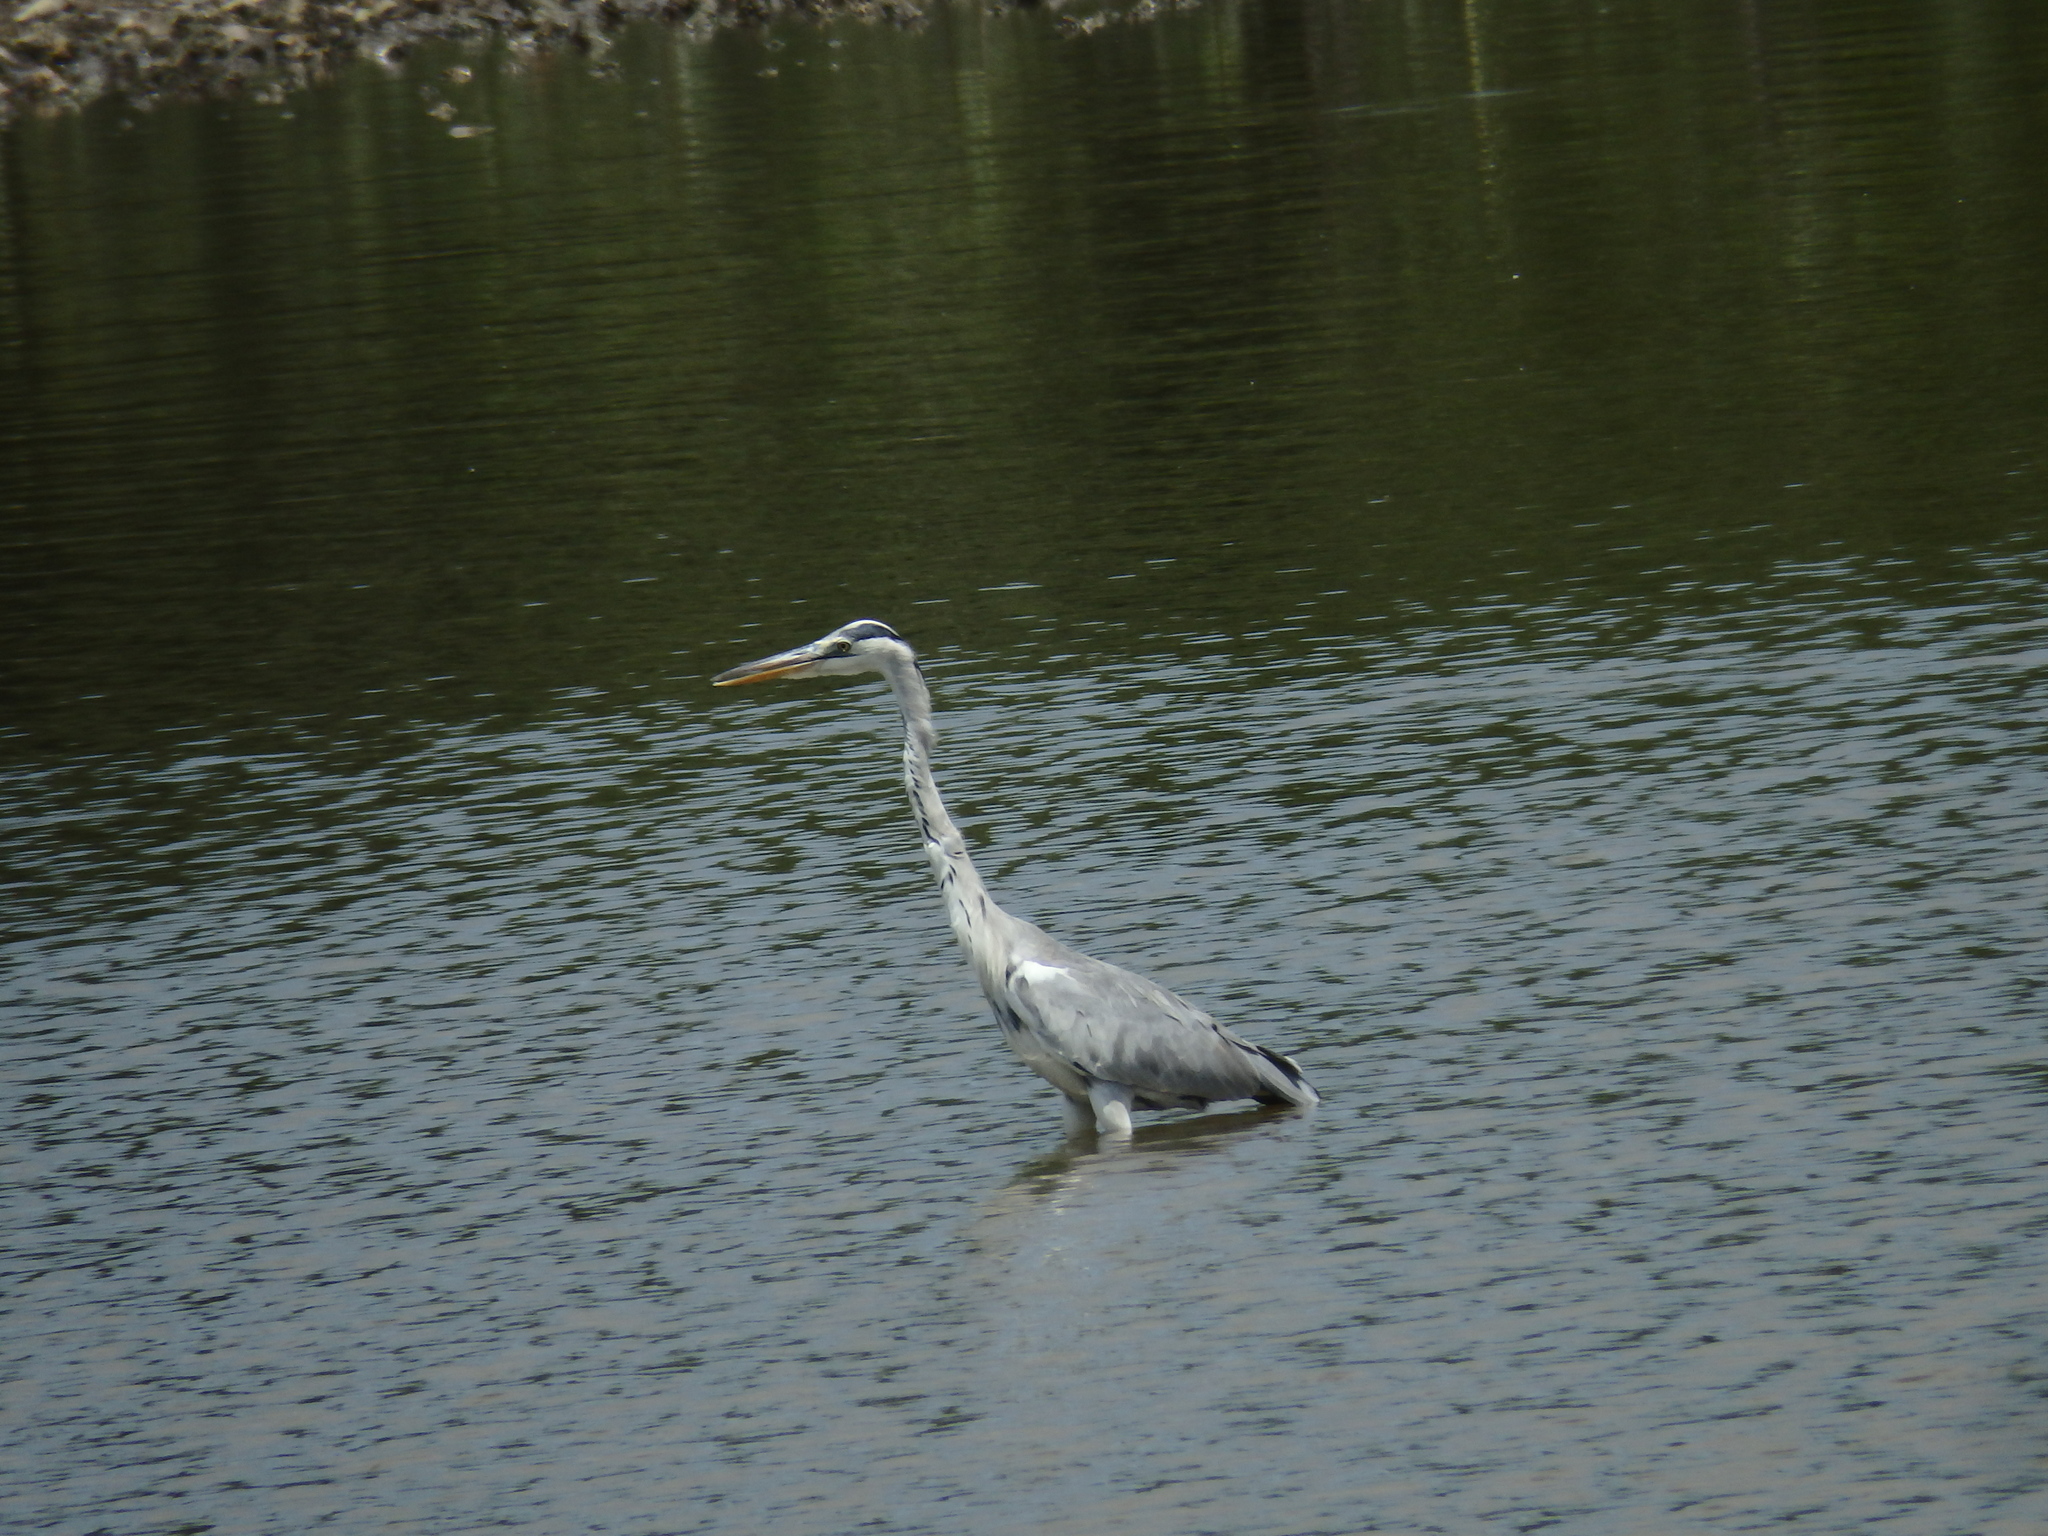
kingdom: Animalia
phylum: Chordata
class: Aves
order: Pelecaniformes
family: Ardeidae
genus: Ardea
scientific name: Ardea cinerea
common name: Grey heron
